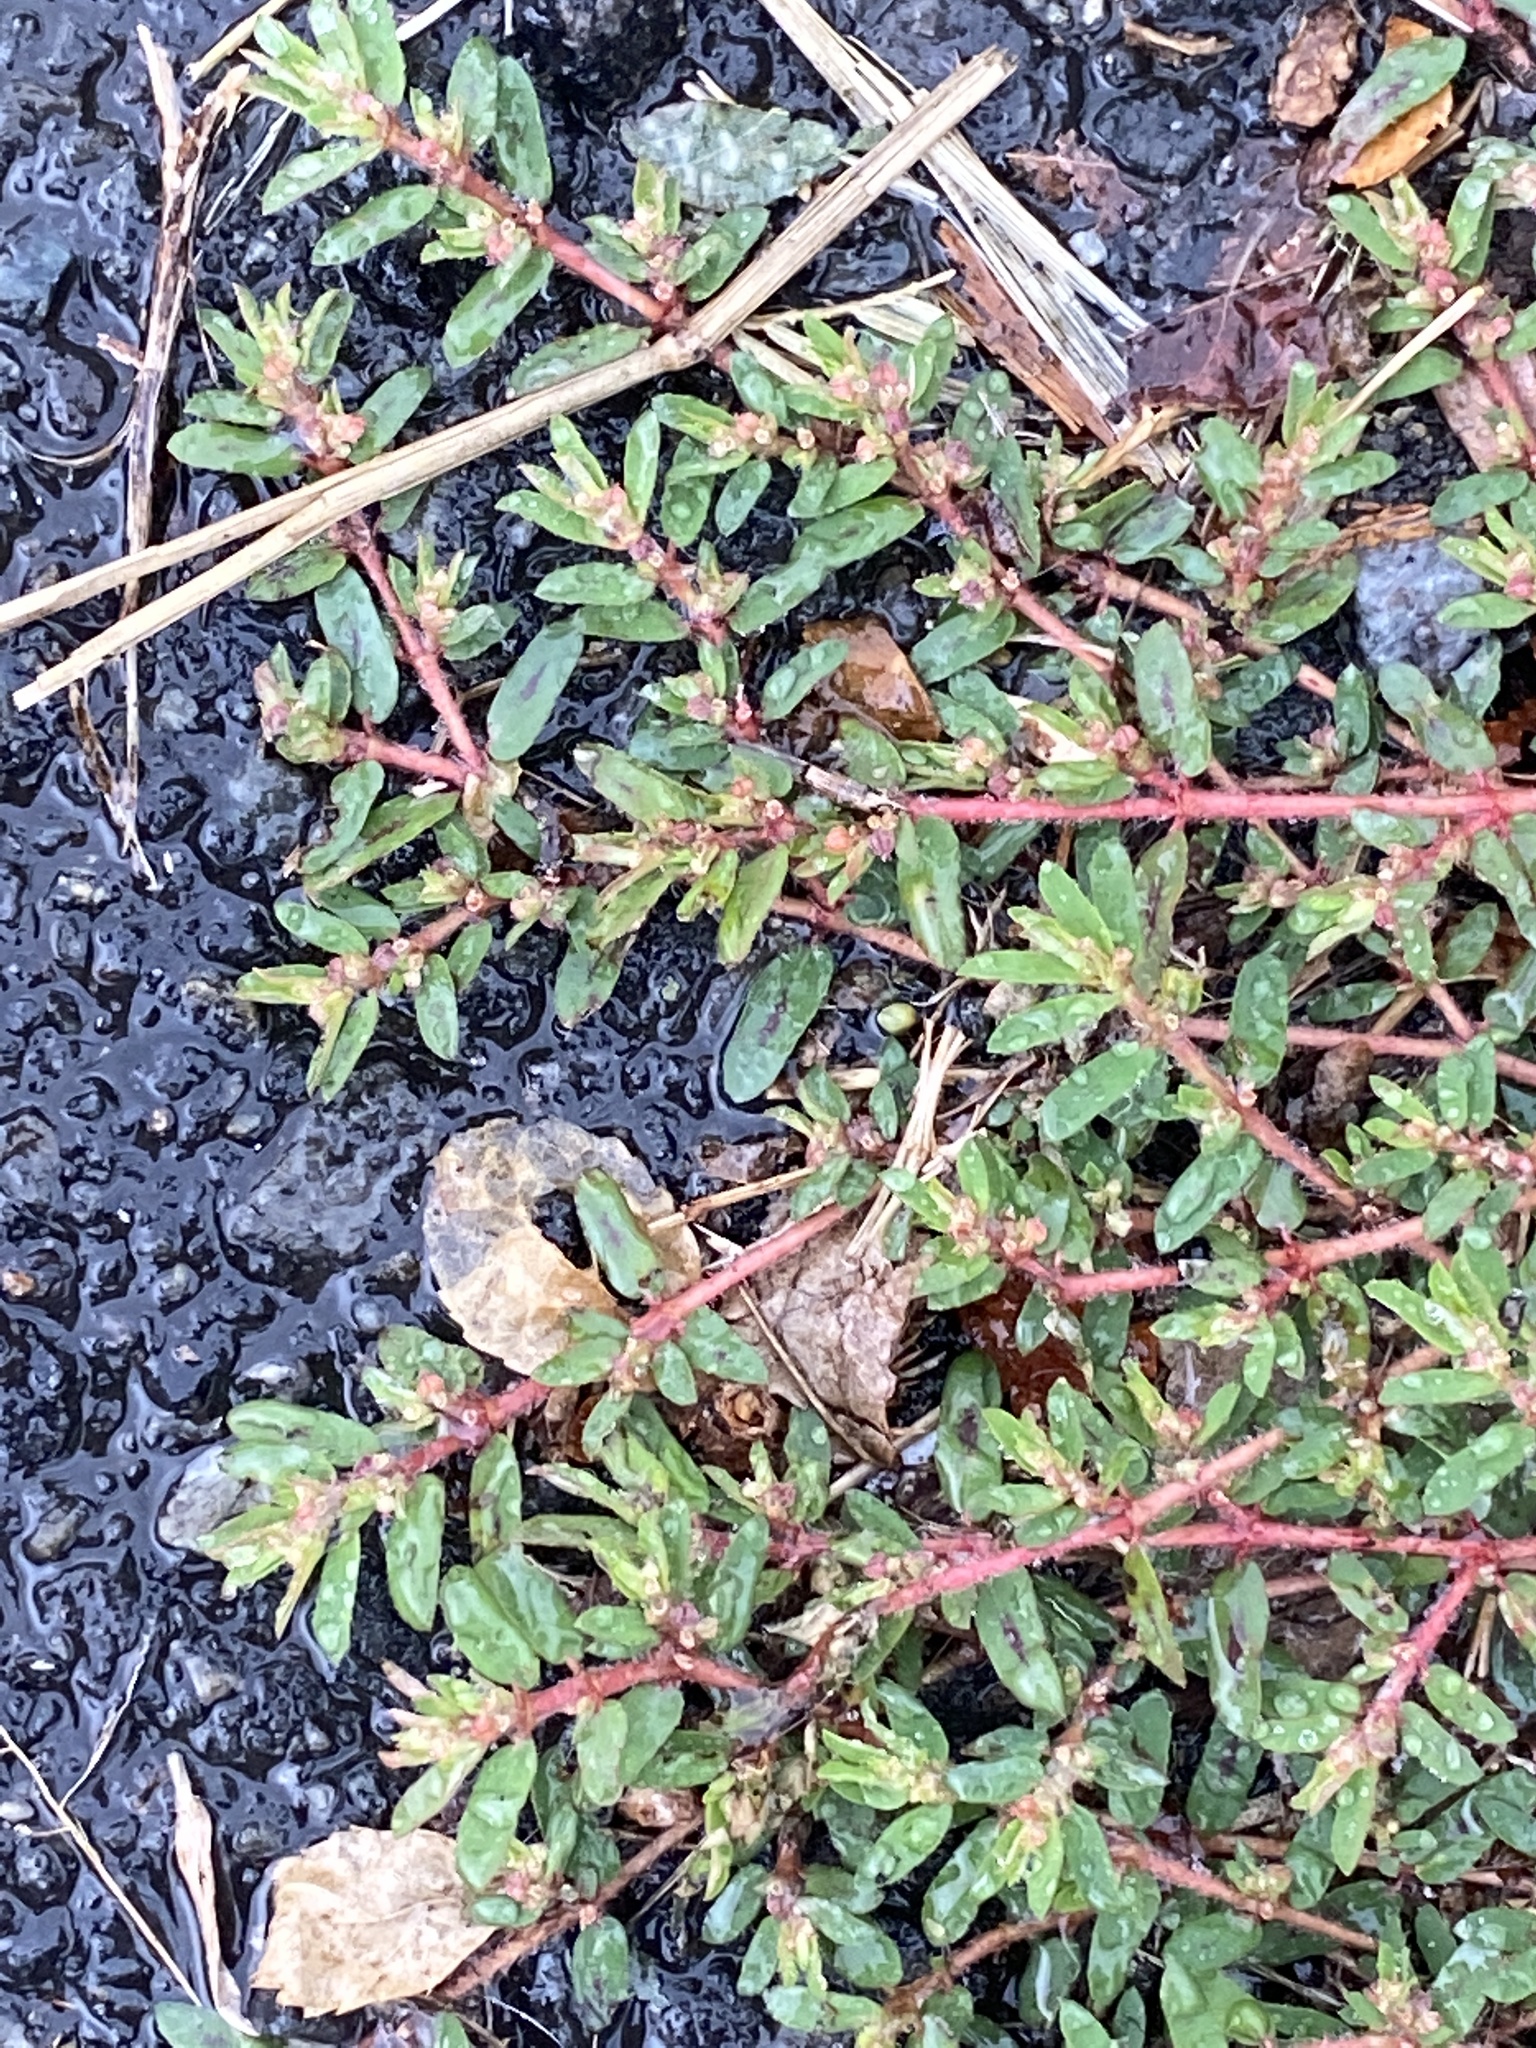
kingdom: Plantae
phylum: Tracheophyta
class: Magnoliopsida
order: Malpighiales
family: Euphorbiaceae
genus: Euphorbia
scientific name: Euphorbia maculata
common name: Spotted spurge
